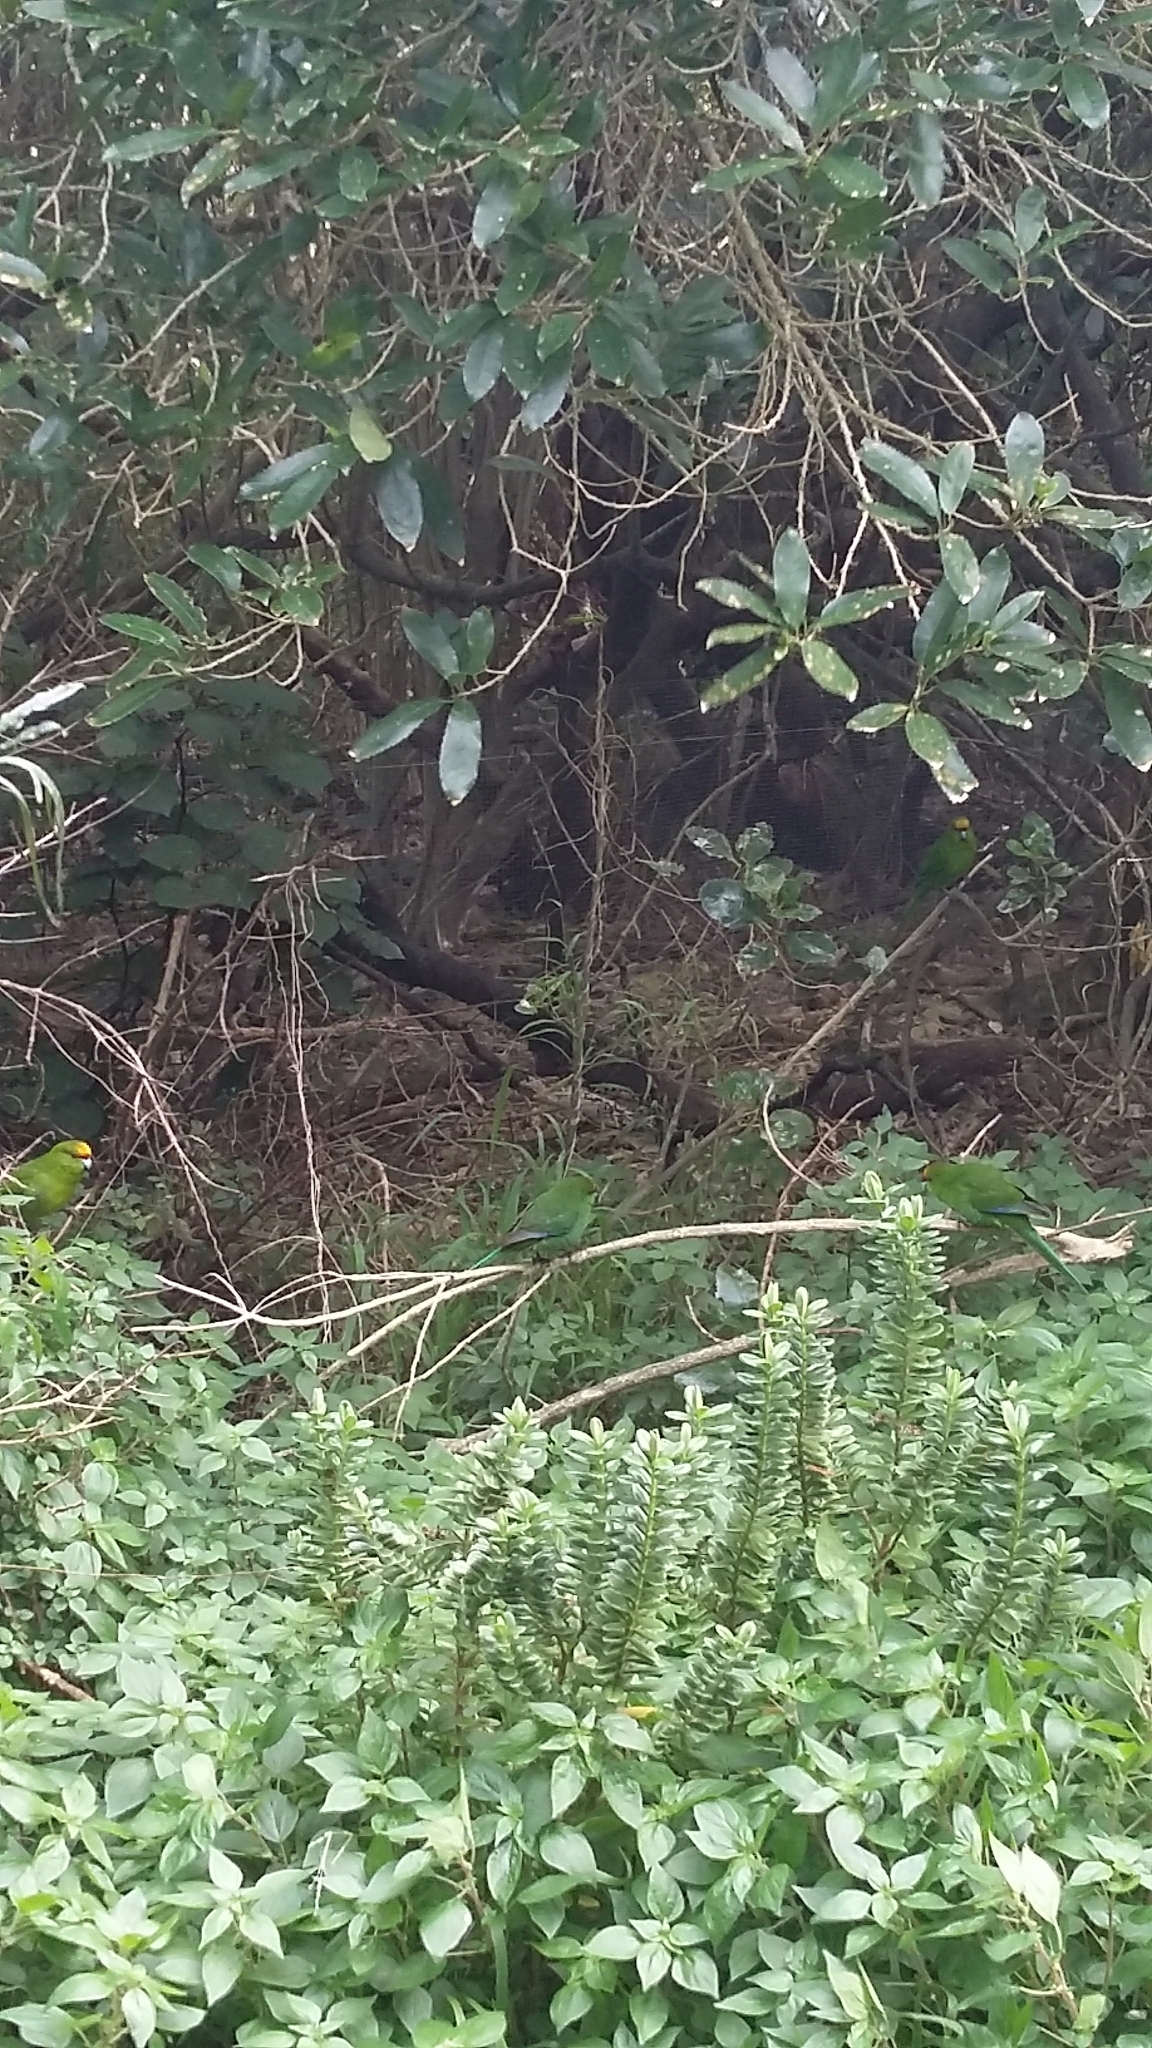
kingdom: Animalia
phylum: Chordata
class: Aves
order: Psittaciformes
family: Psittacidae
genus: Cyanoramphus
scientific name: Cyanoramphus auriceps
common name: Yellow-crowned parakeet
